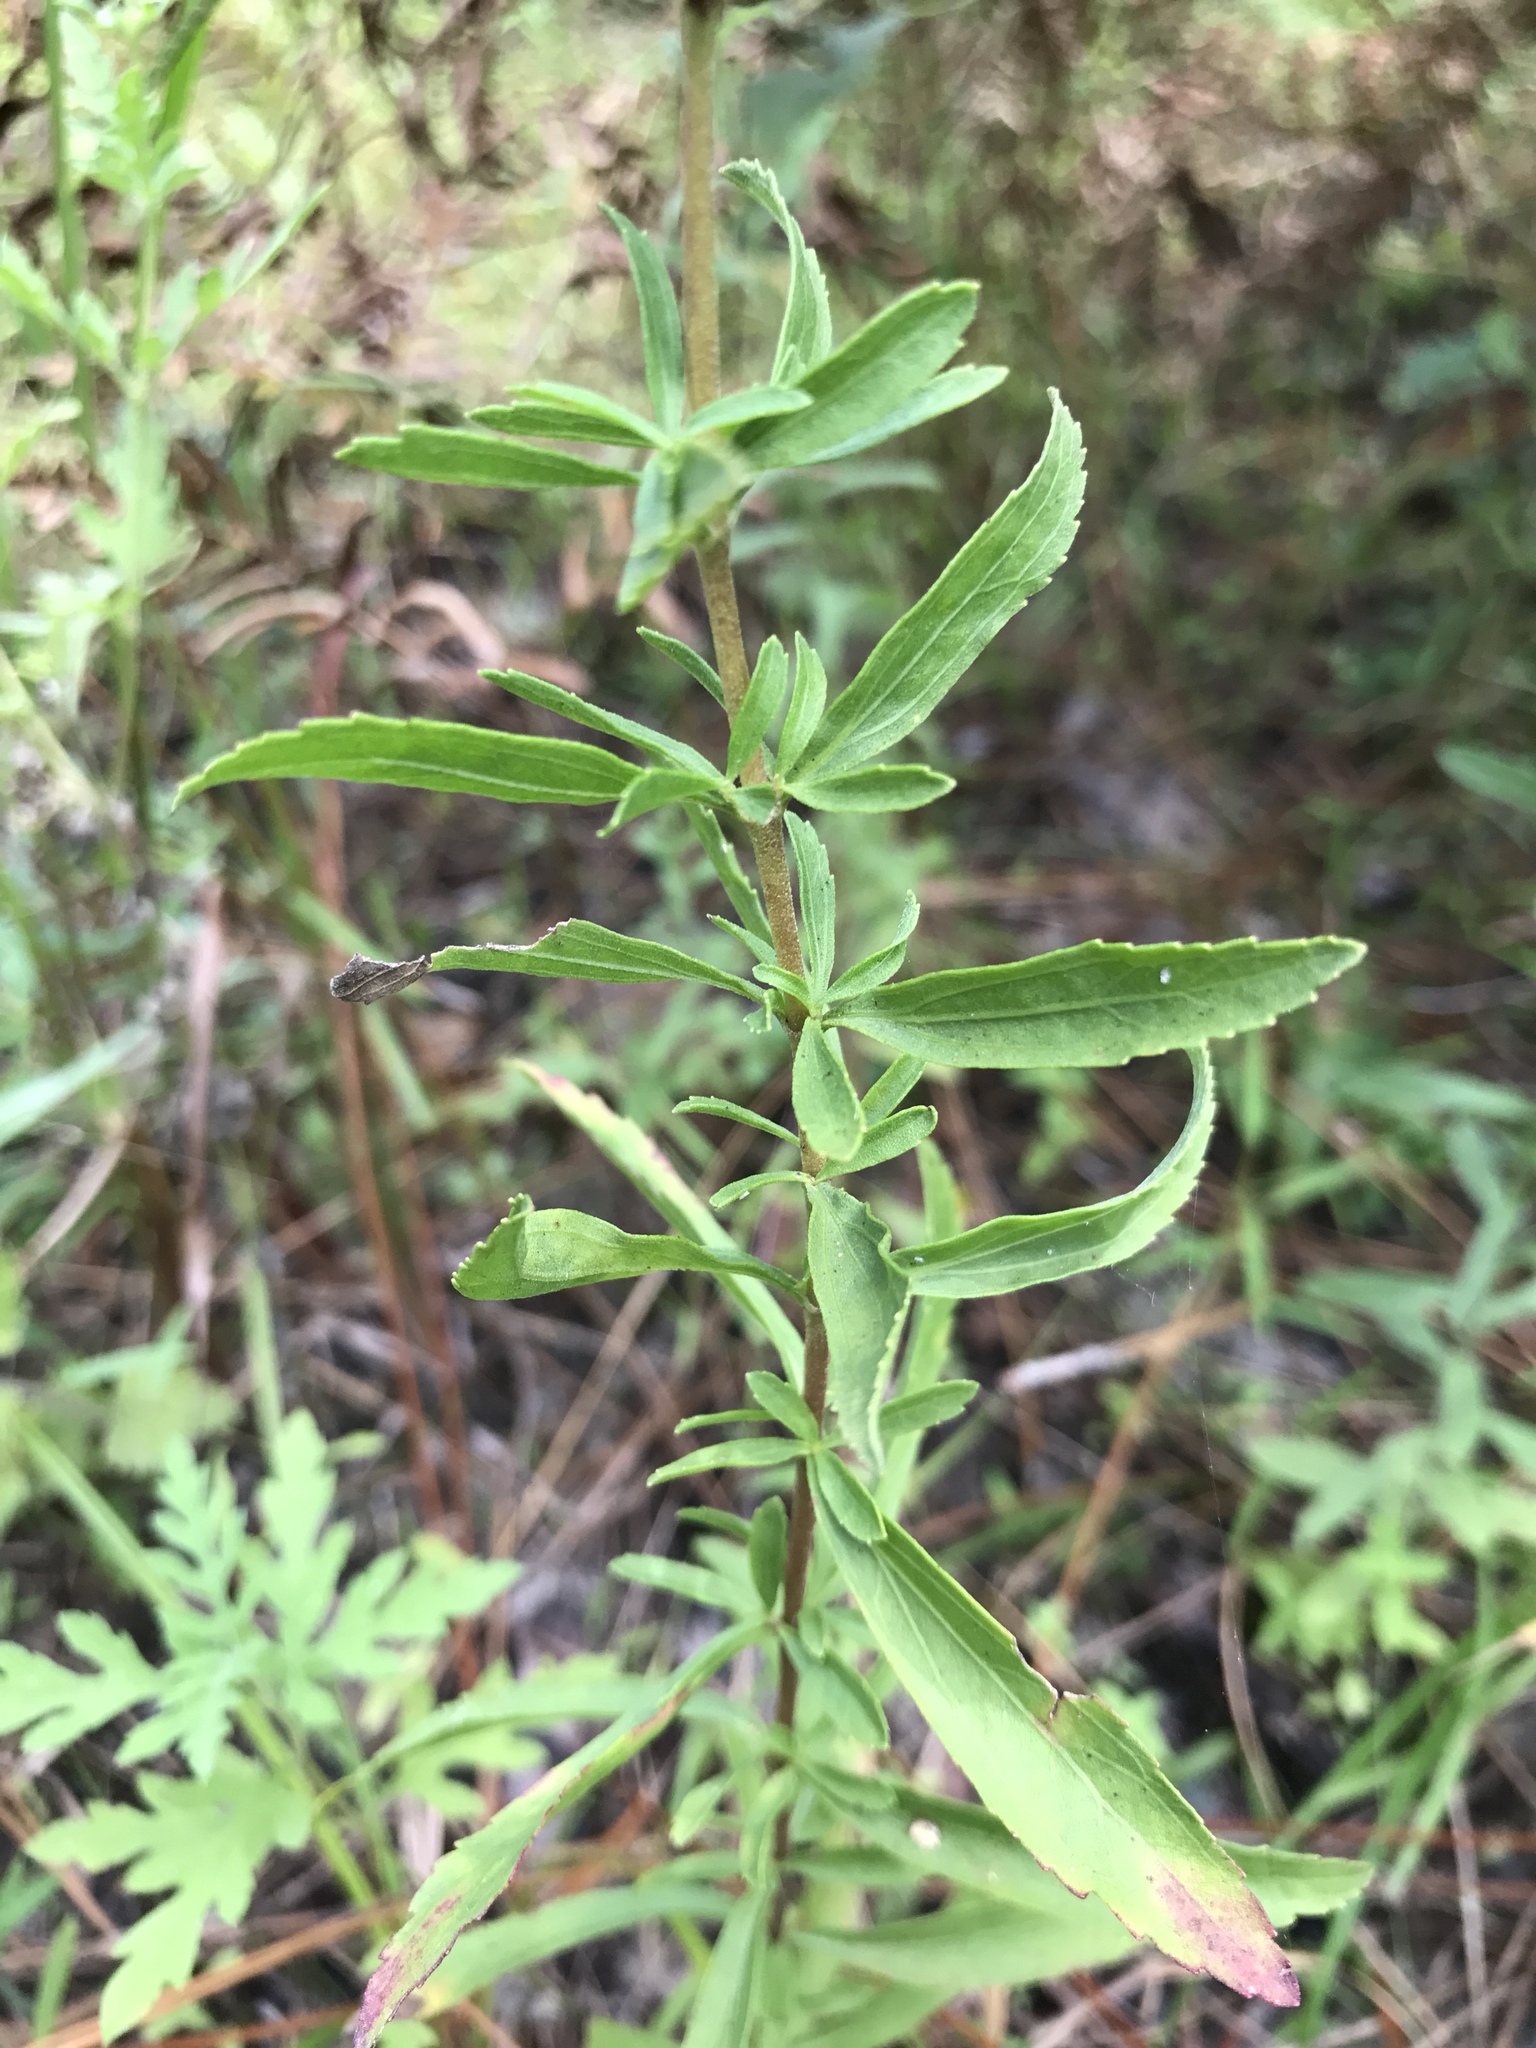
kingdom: Plantae
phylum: Tracheophyta
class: Magnoliopsida
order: Asterales
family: Asteraceae
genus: Eupatorium
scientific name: Eupatorium semiserratum
